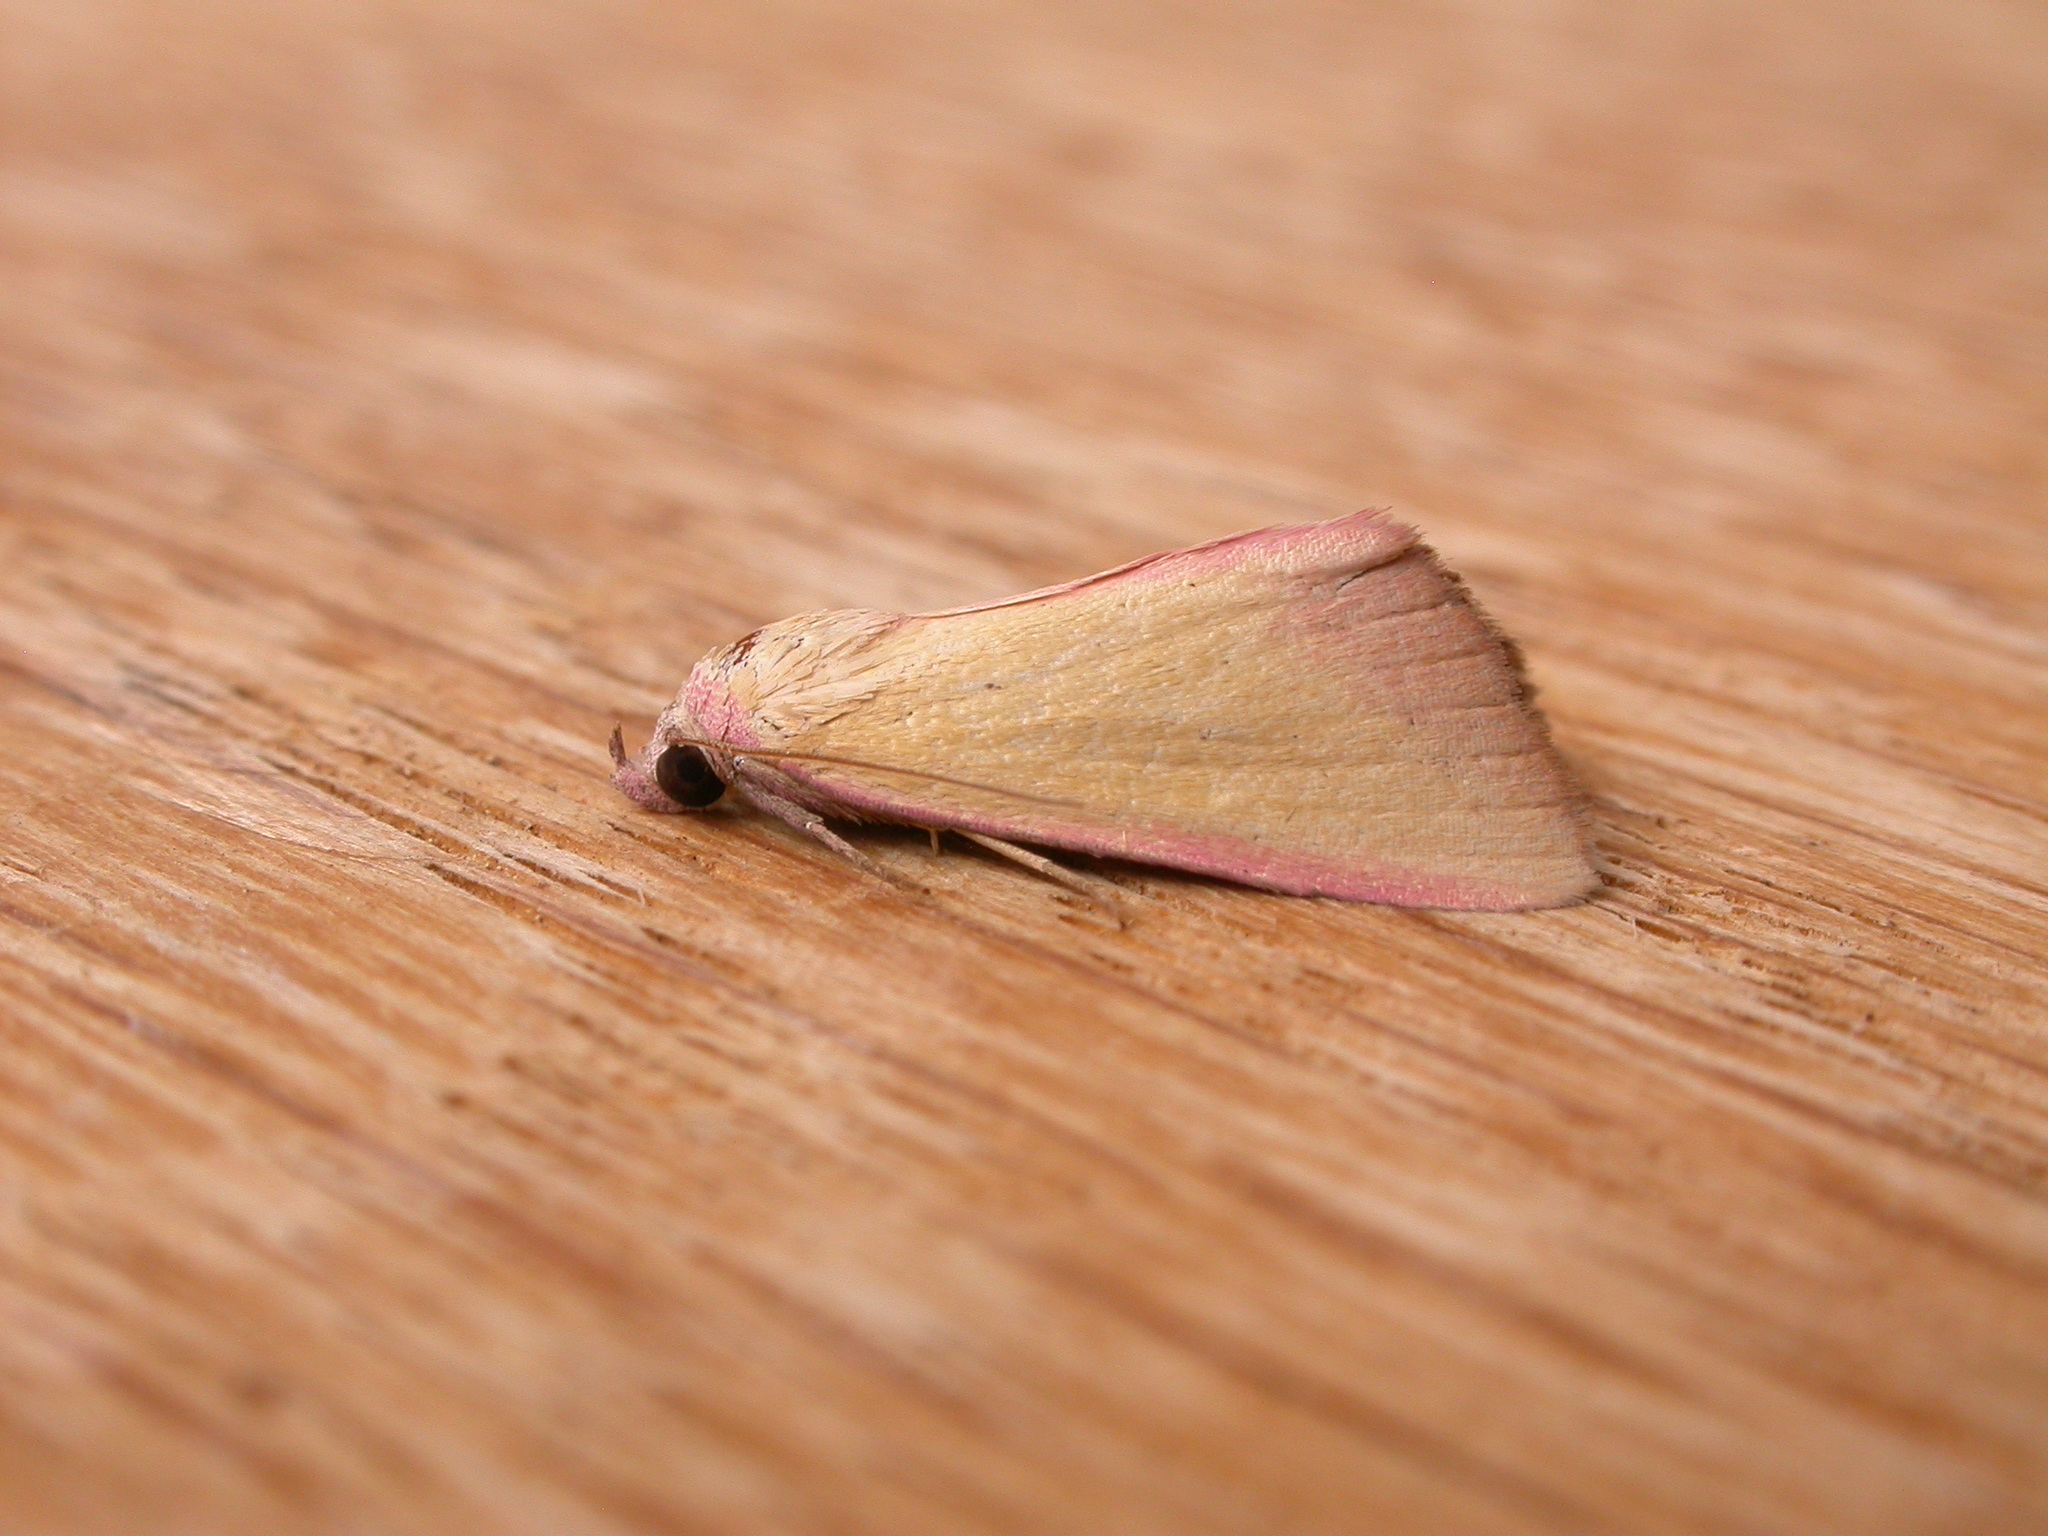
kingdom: Animalia
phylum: Arthropoda
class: Insecta
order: Lepidoptera
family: Erebidae
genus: Phytometra
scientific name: Phytometra formosalis
